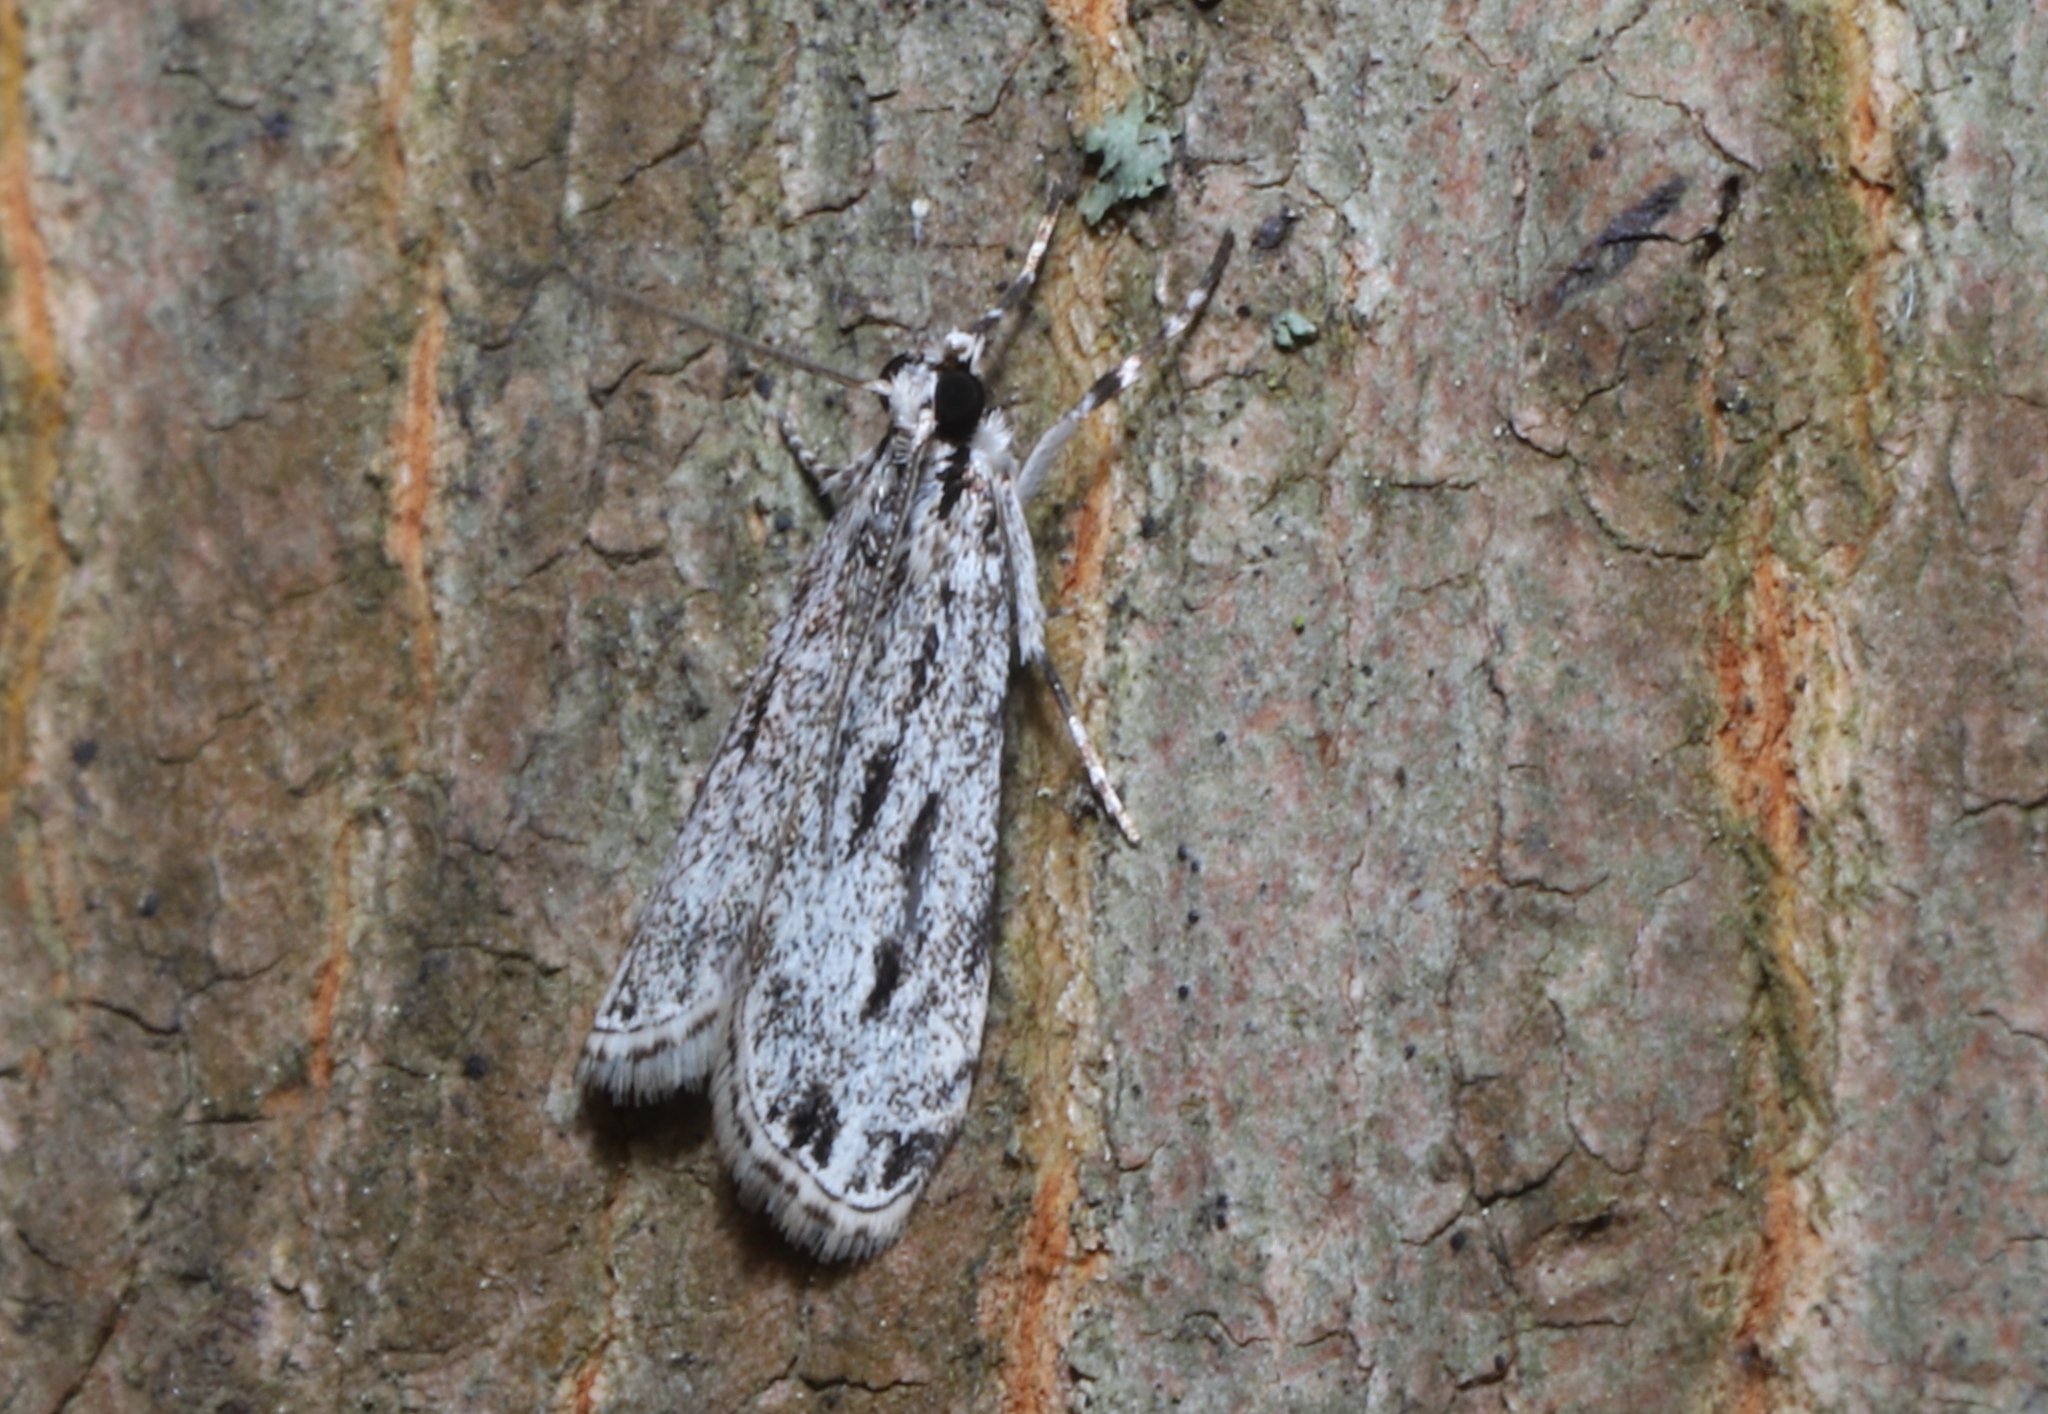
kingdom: Animalia
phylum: Arthropoda
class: Insecta
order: Lepidoptera
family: Crambidae
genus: Eudonia
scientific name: Eudonia strigalis
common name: Striped eudonia moth
